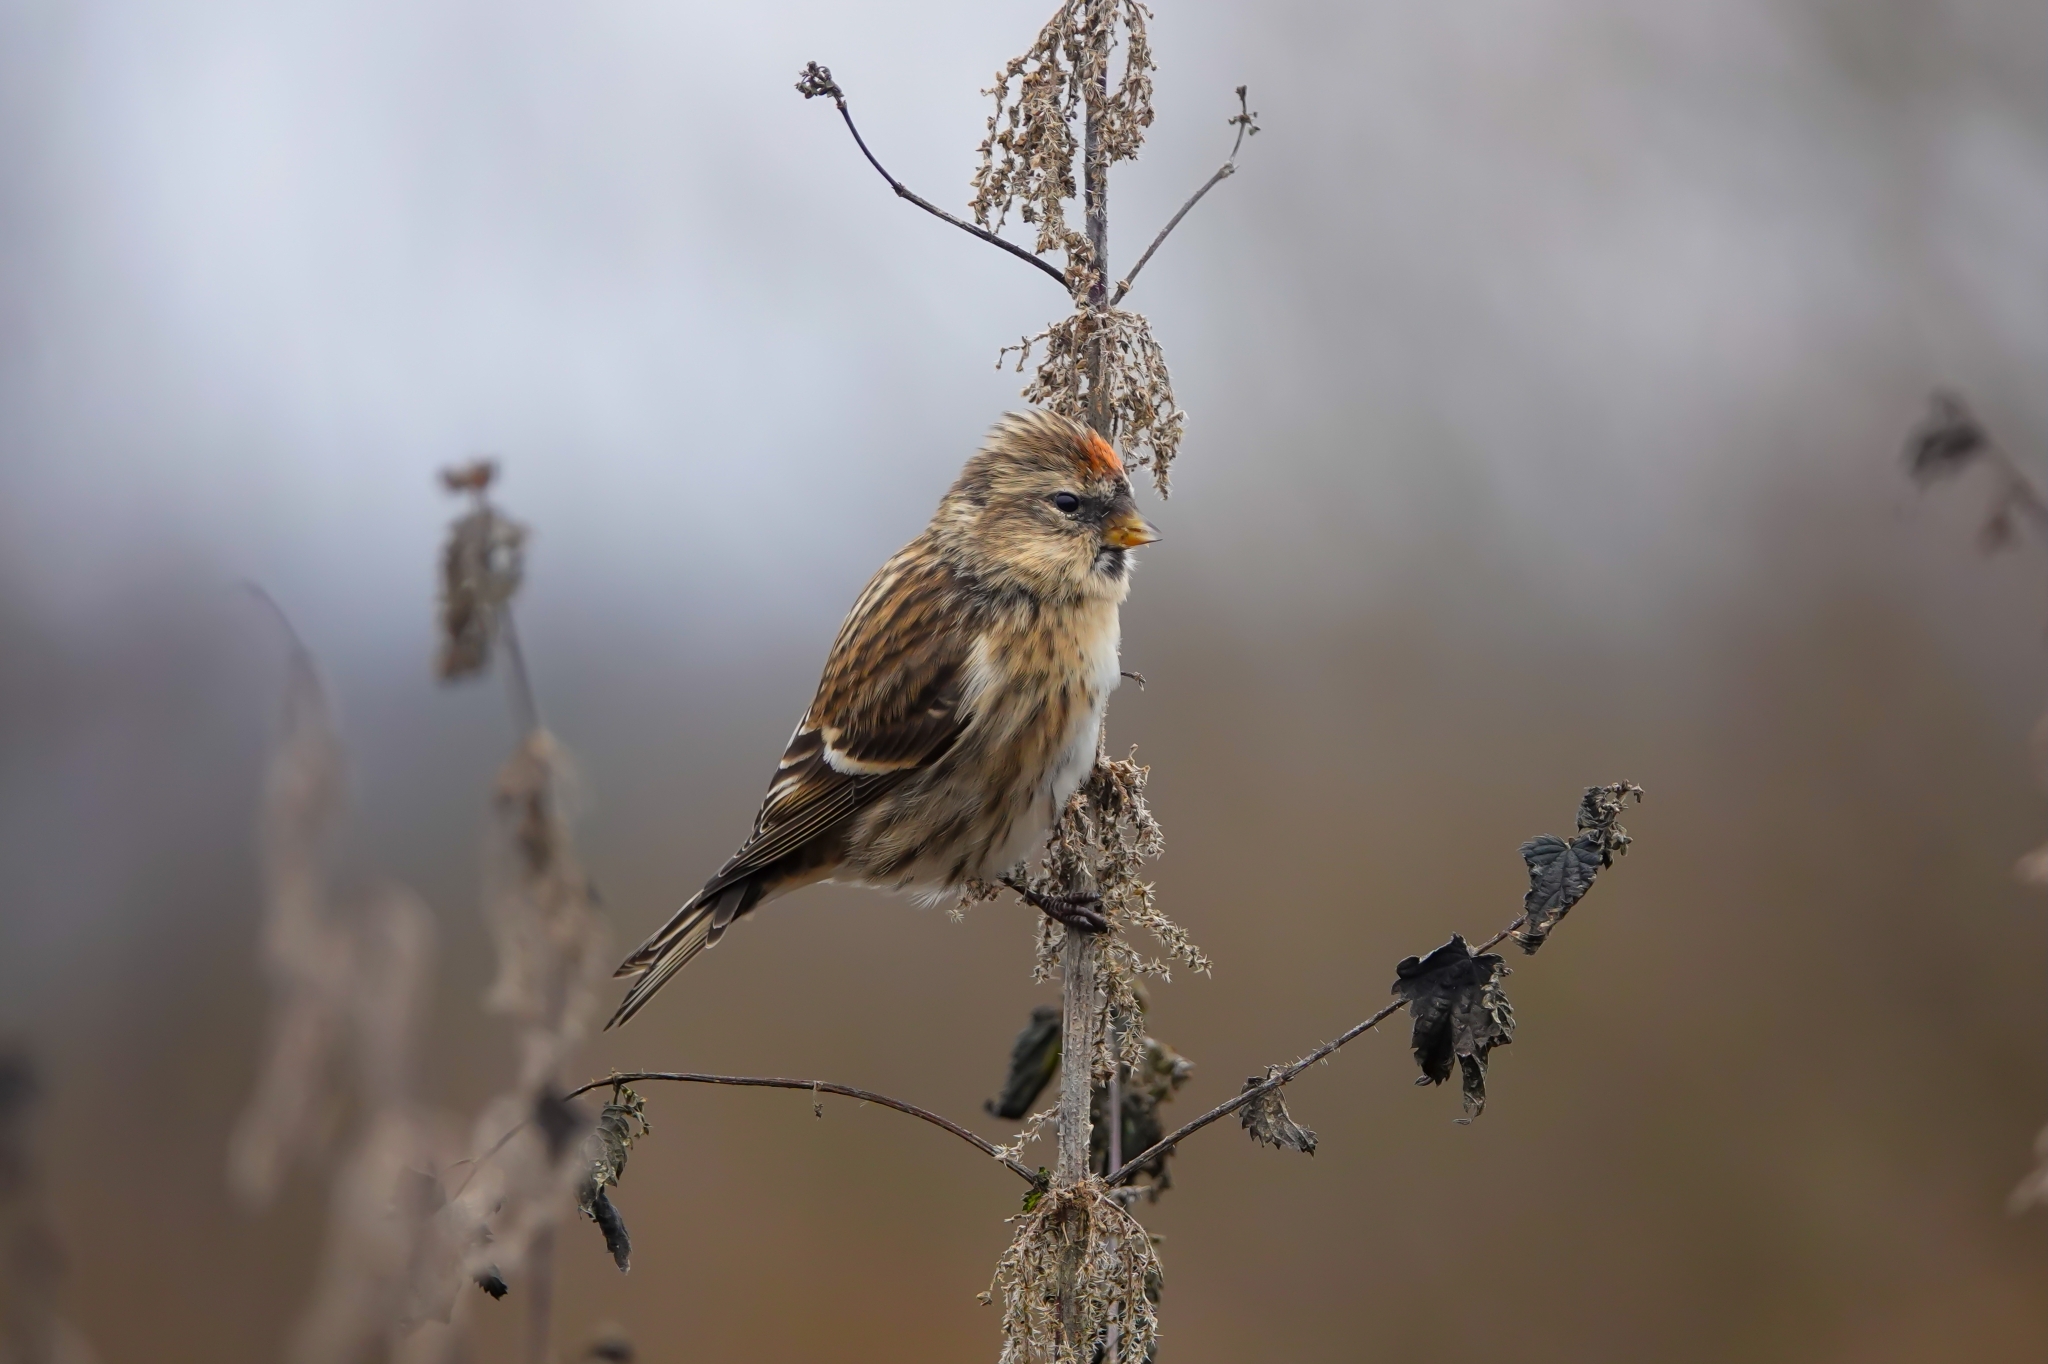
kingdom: Animalia
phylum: Chordata
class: Aves
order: Passeriformes
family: Fringillidae
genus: Acanthis
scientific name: Acanthis flammea
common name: Common redpoll
